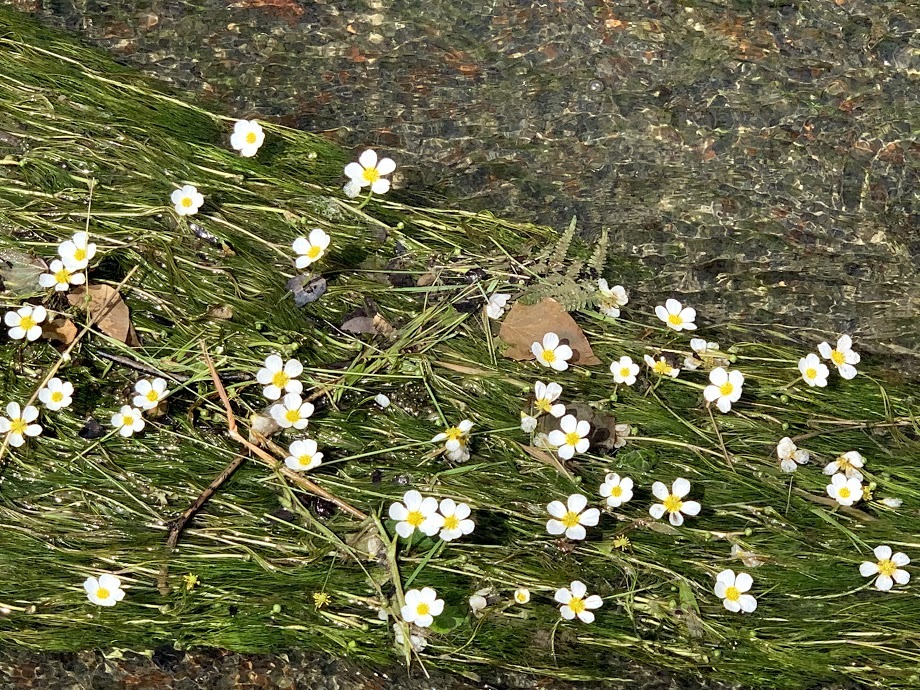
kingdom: Plantae
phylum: Tracheophyta
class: Magnoliopsida
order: Ranunculales
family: Ranunculaceae
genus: Ranunculus
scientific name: Ranunculus pseudofluitans
